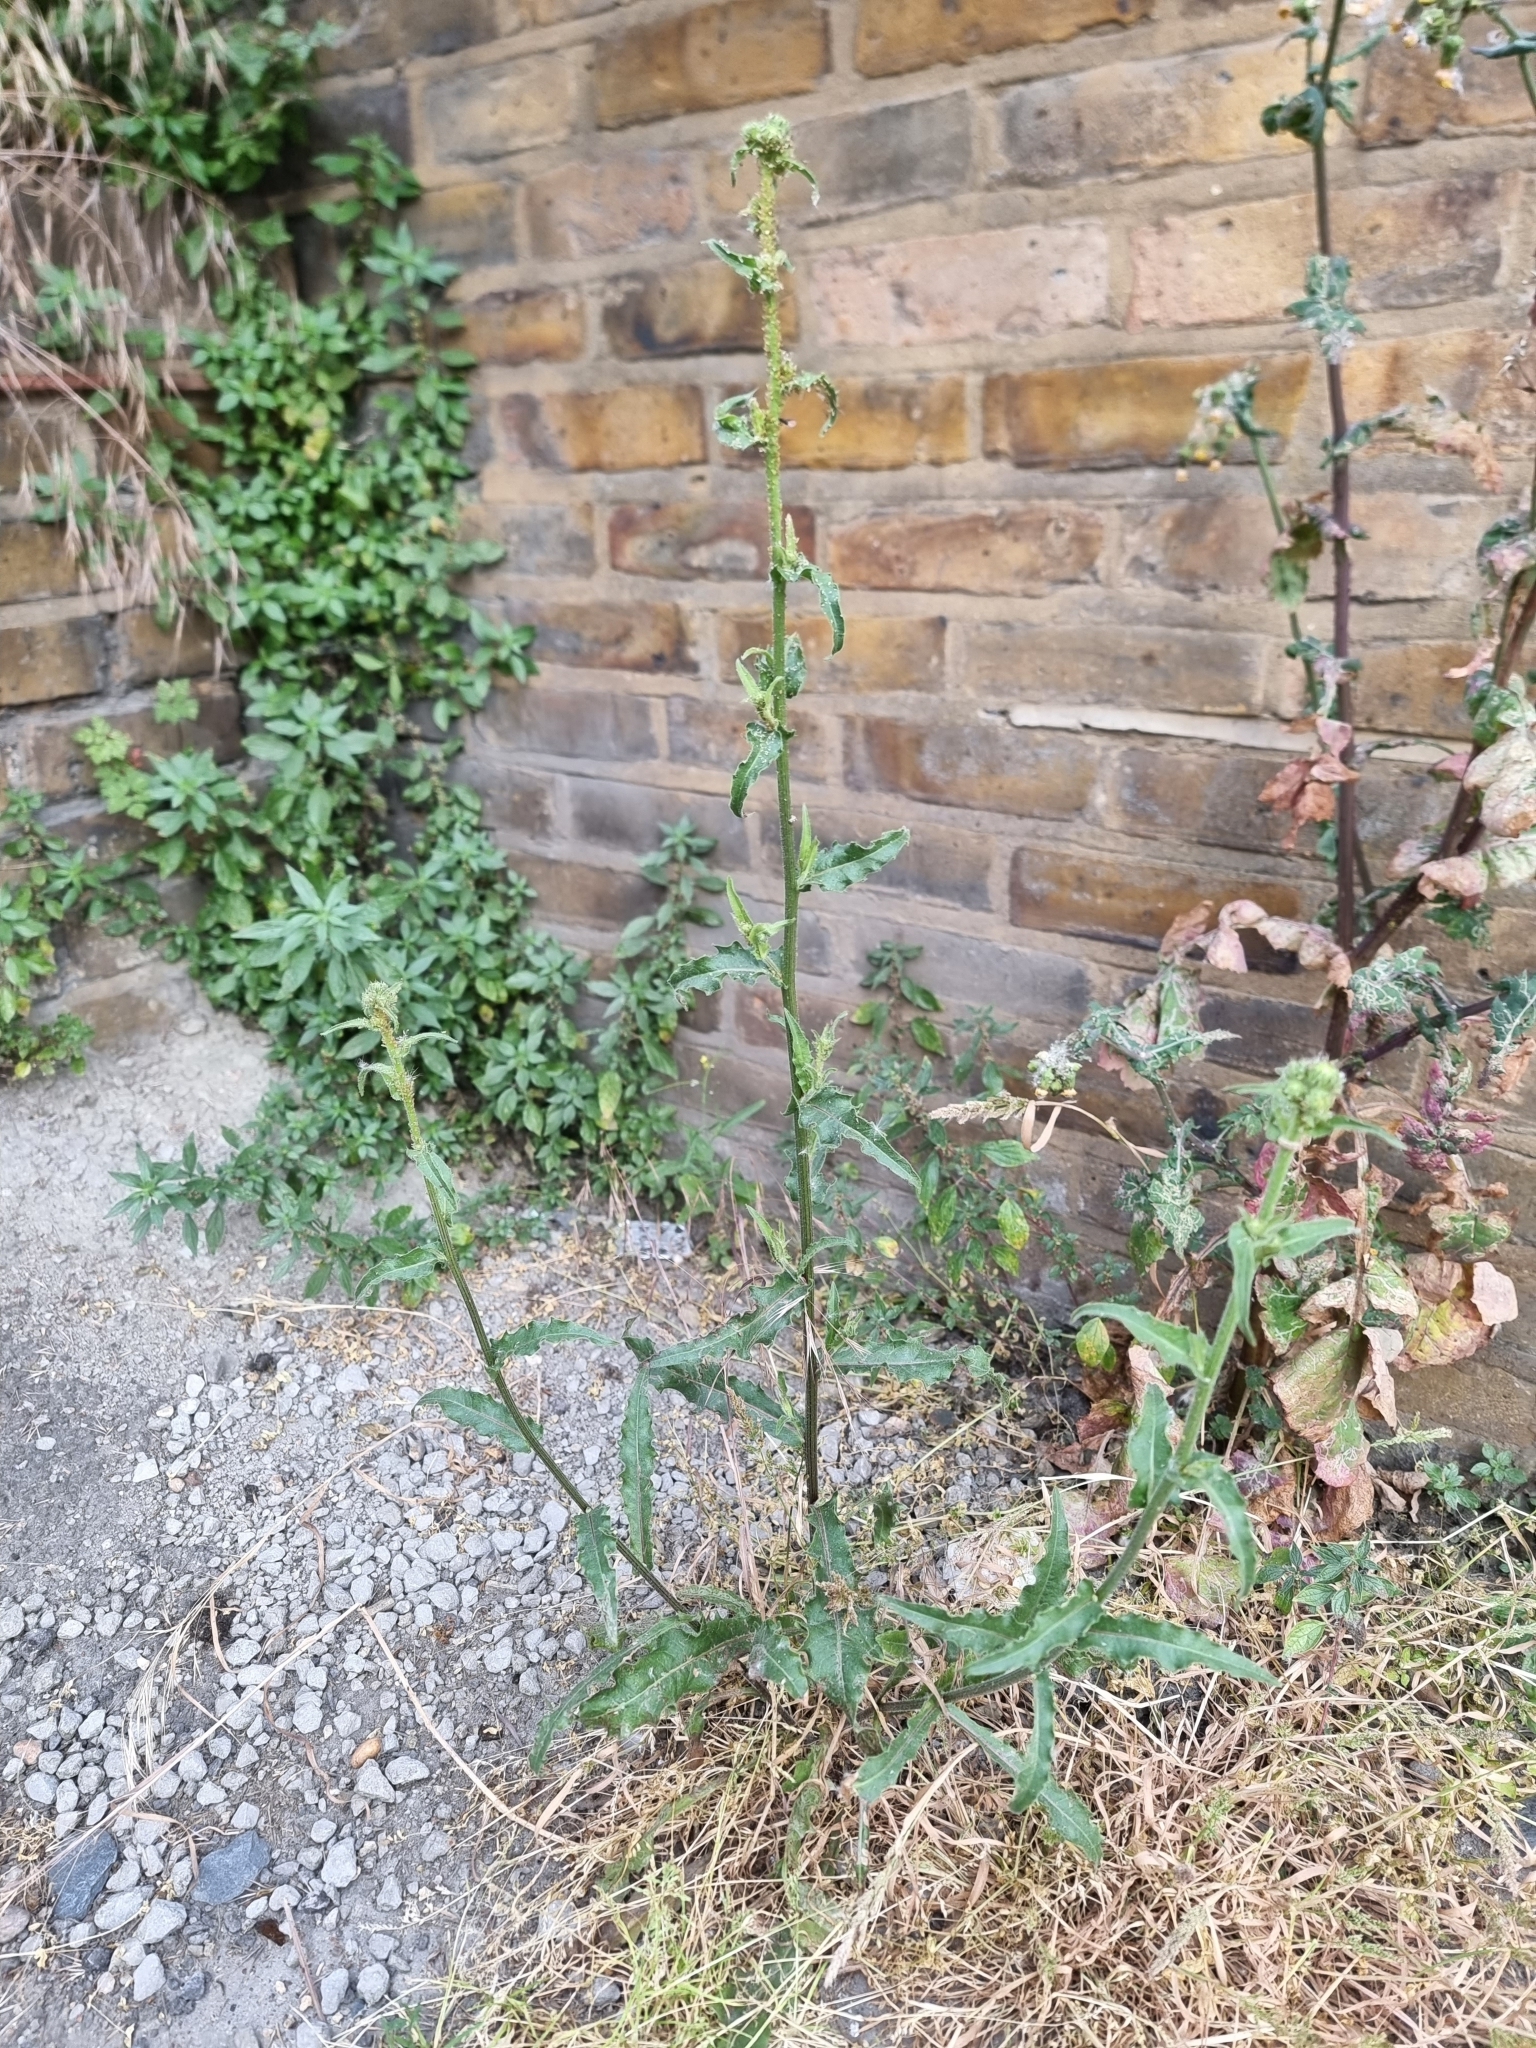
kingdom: Plantae
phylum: Tracheophyta
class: Magnoliopsida
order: Asterales
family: Asteraceae
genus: Picris
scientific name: Picris hieracioides
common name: Hawkweed oxtongue
